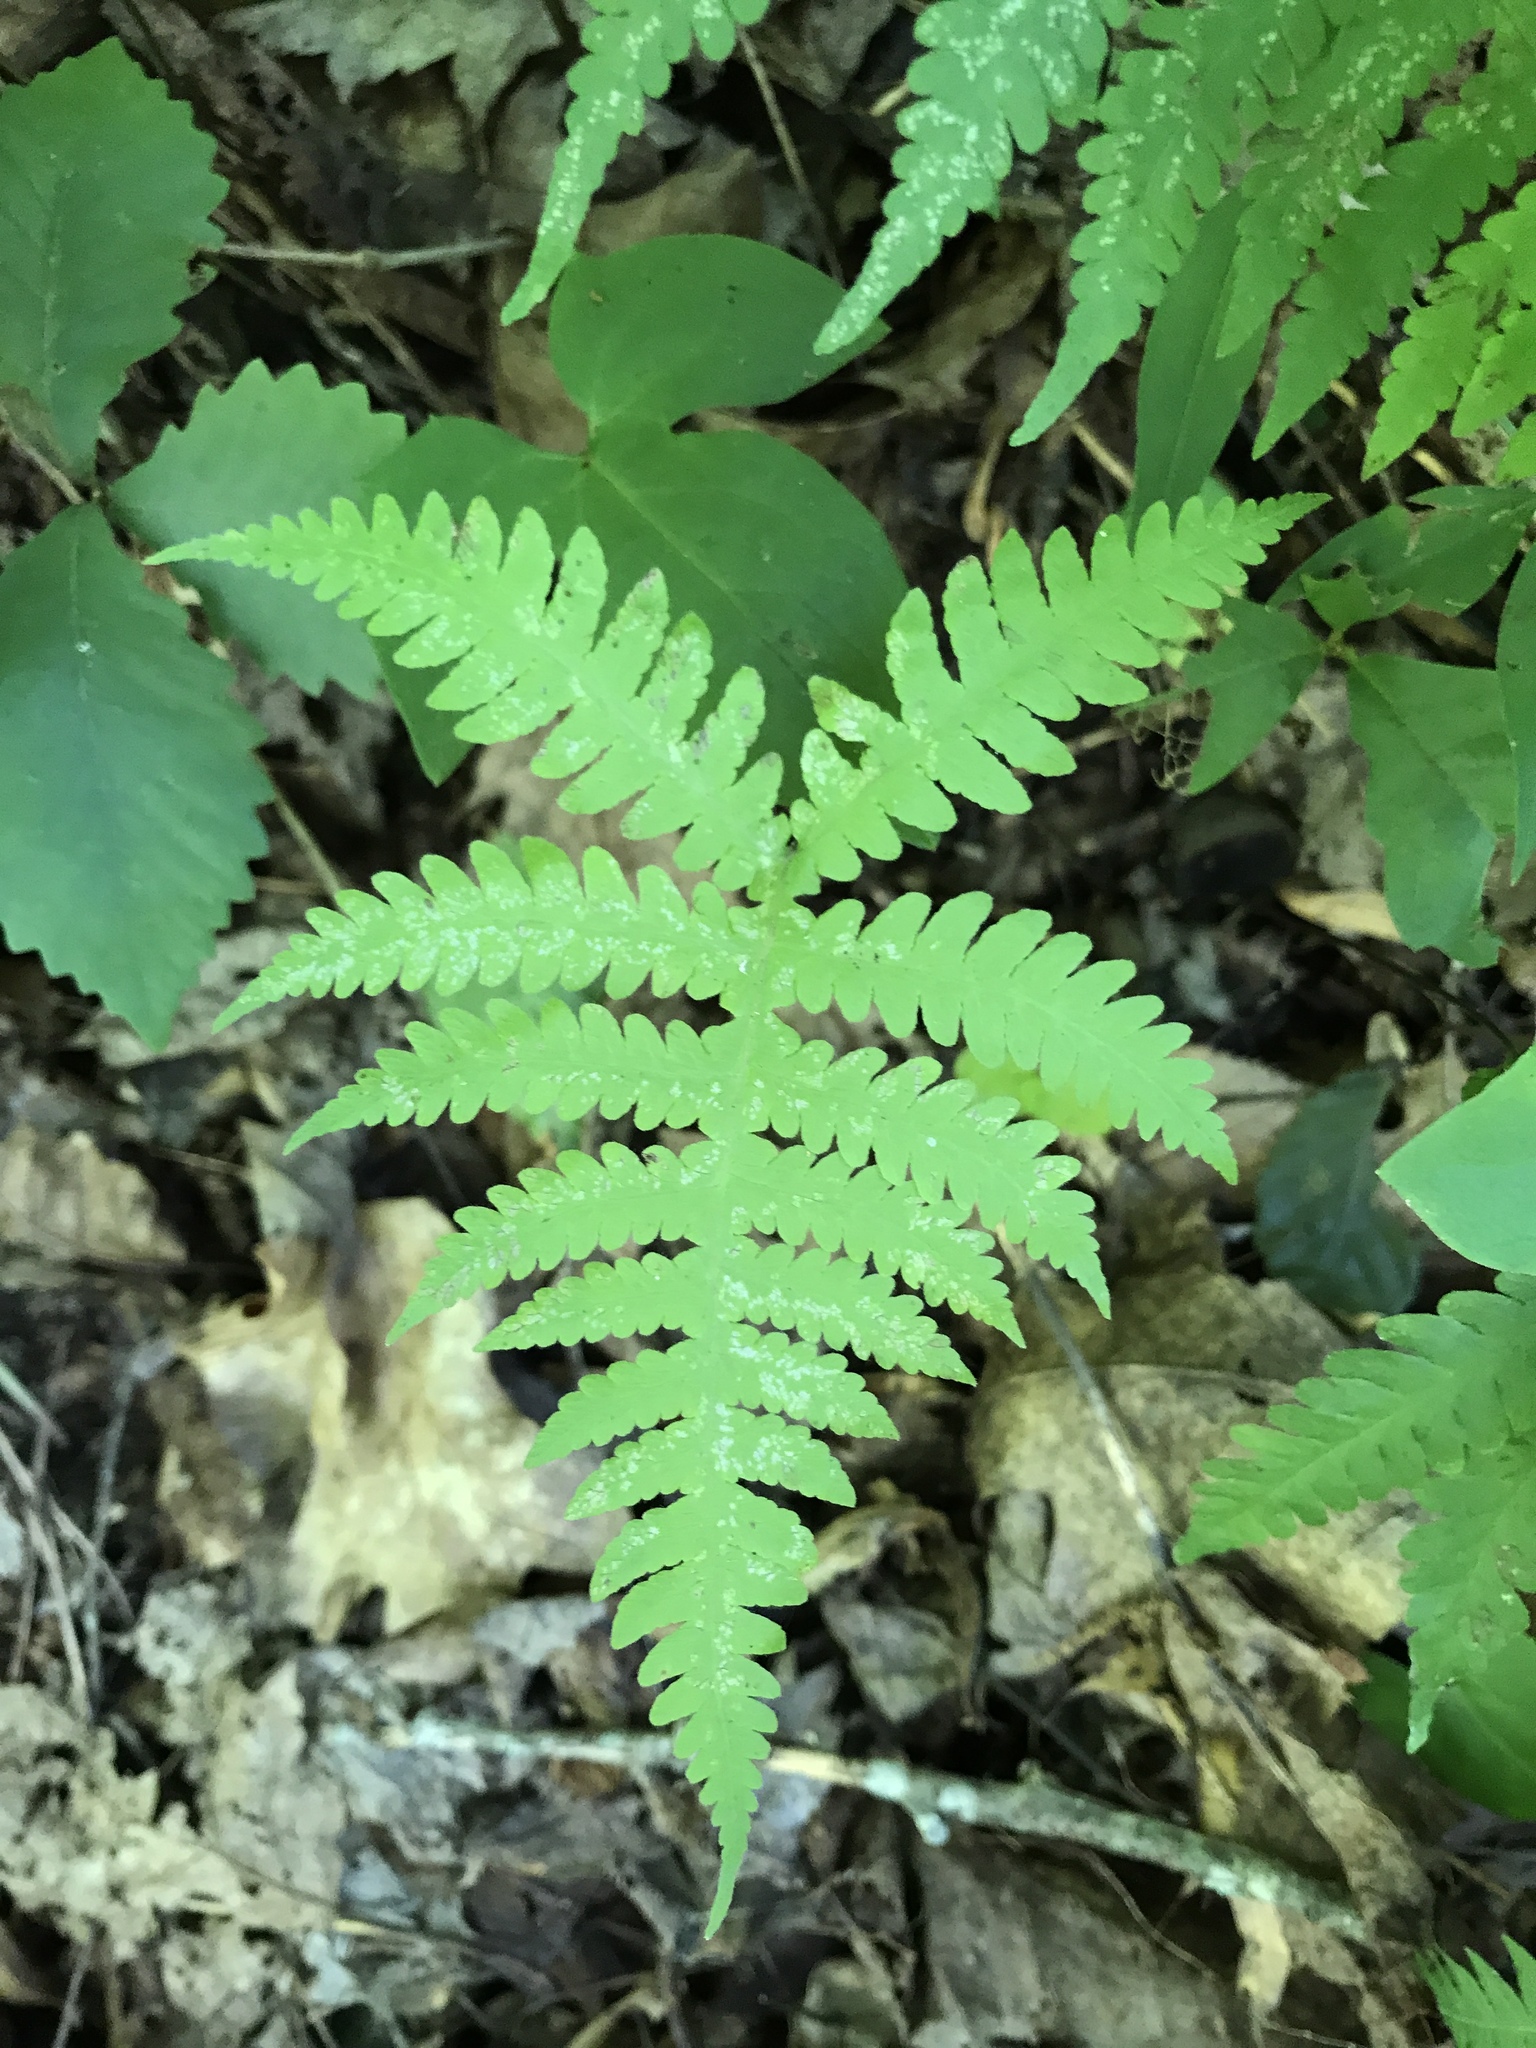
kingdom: Plantae
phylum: Tracheophyta
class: Polypodiopsida
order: Polypodiales
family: Thelypteridaceae
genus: Phegopteris
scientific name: Phegopteris hexagonoptera
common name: Broad beech fern
